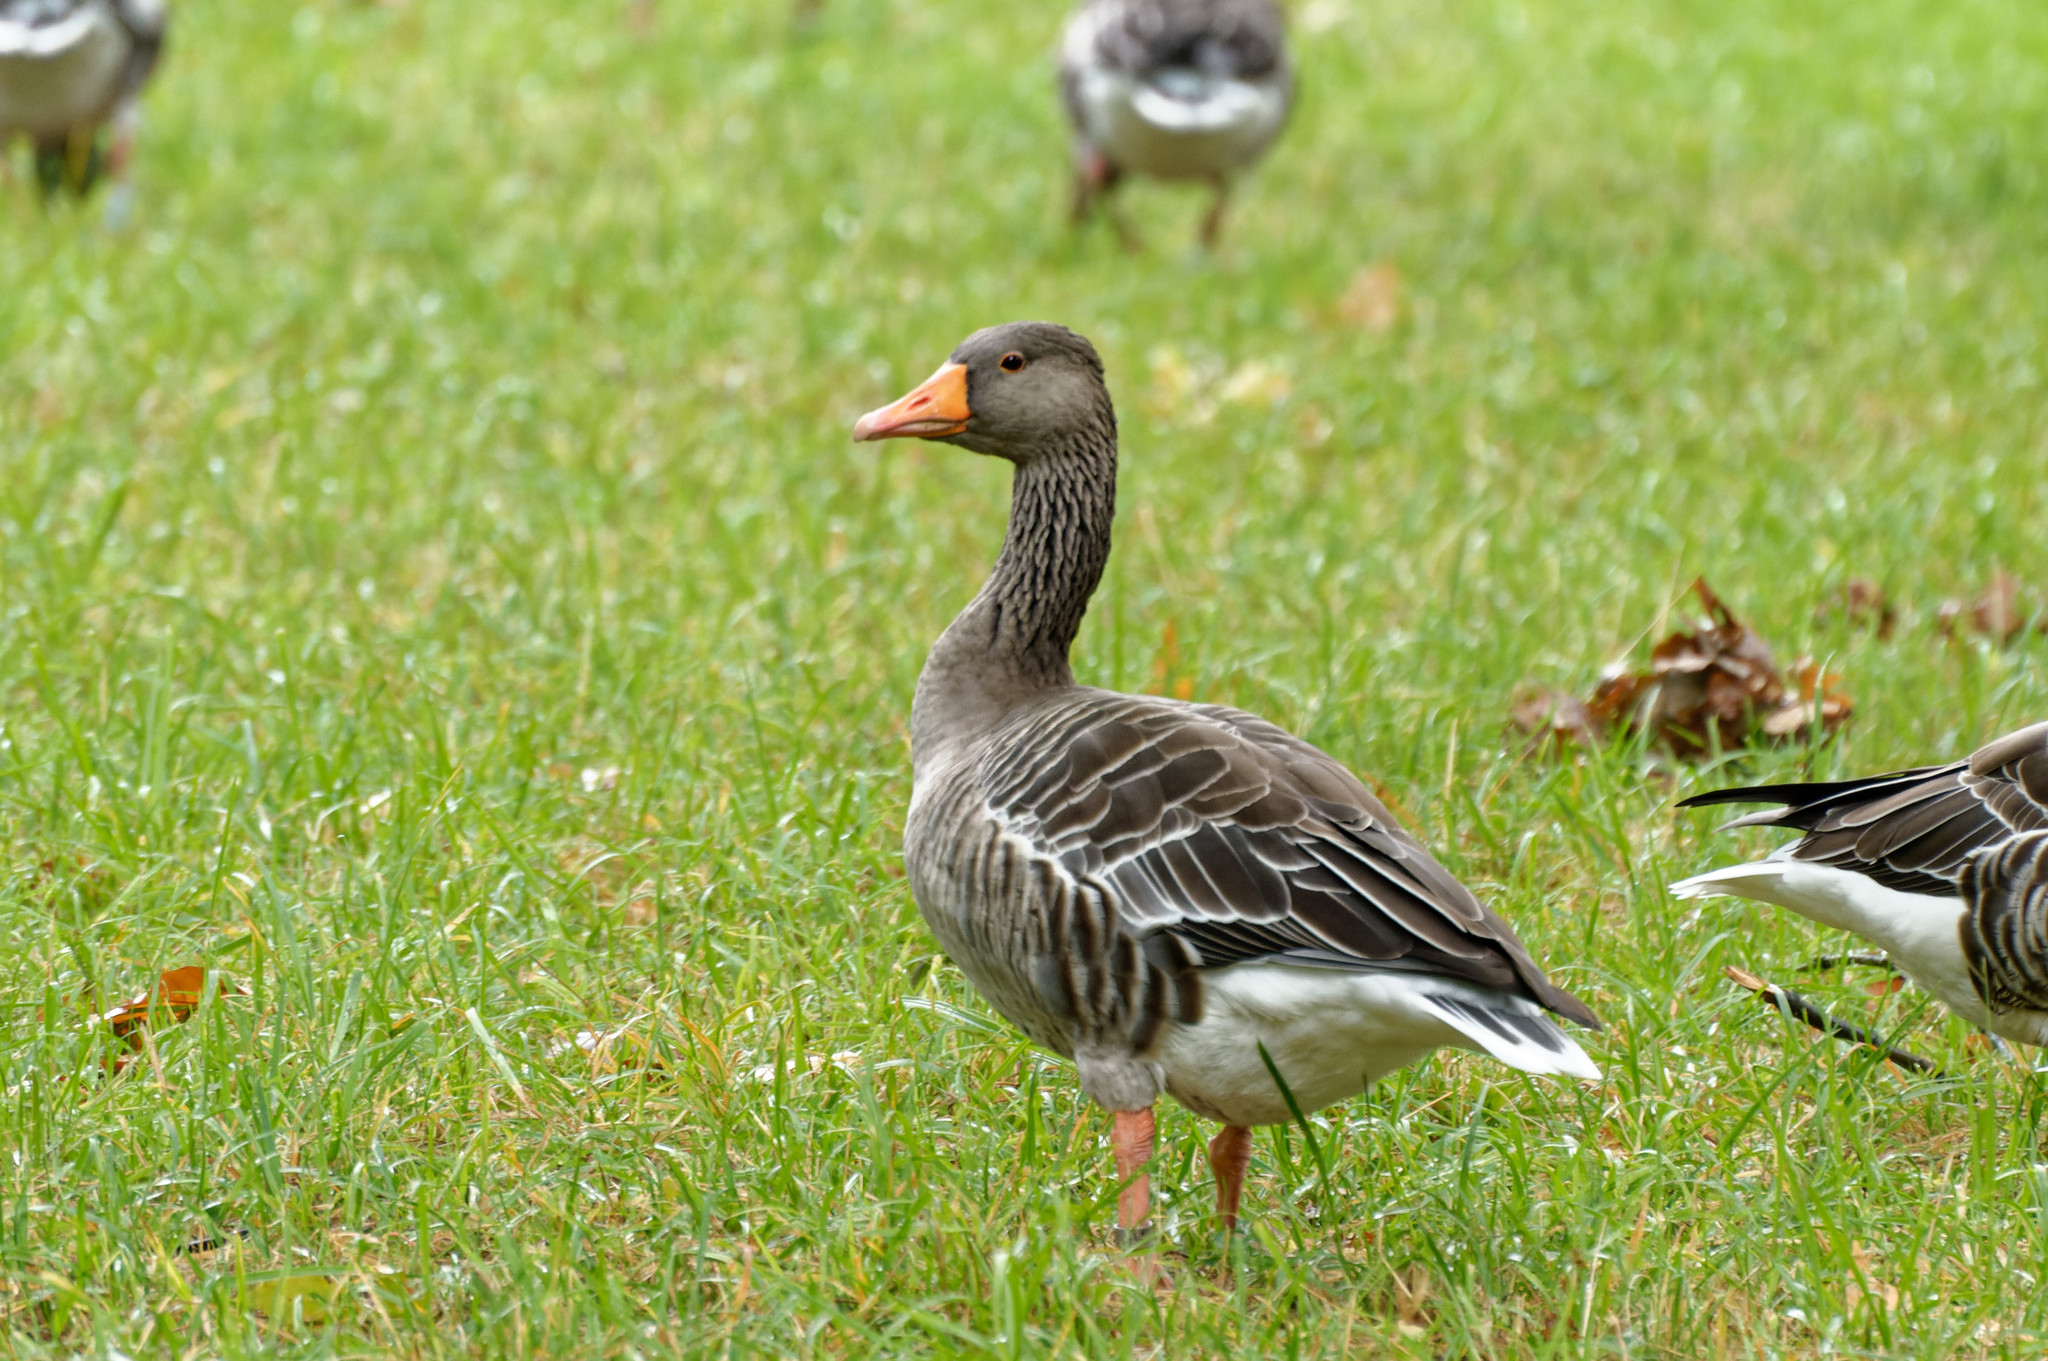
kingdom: Animalia
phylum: Chordata
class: Aves
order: Anseriformes
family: Anatidae
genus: Anser
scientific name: Anser anser
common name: Greylag goose
